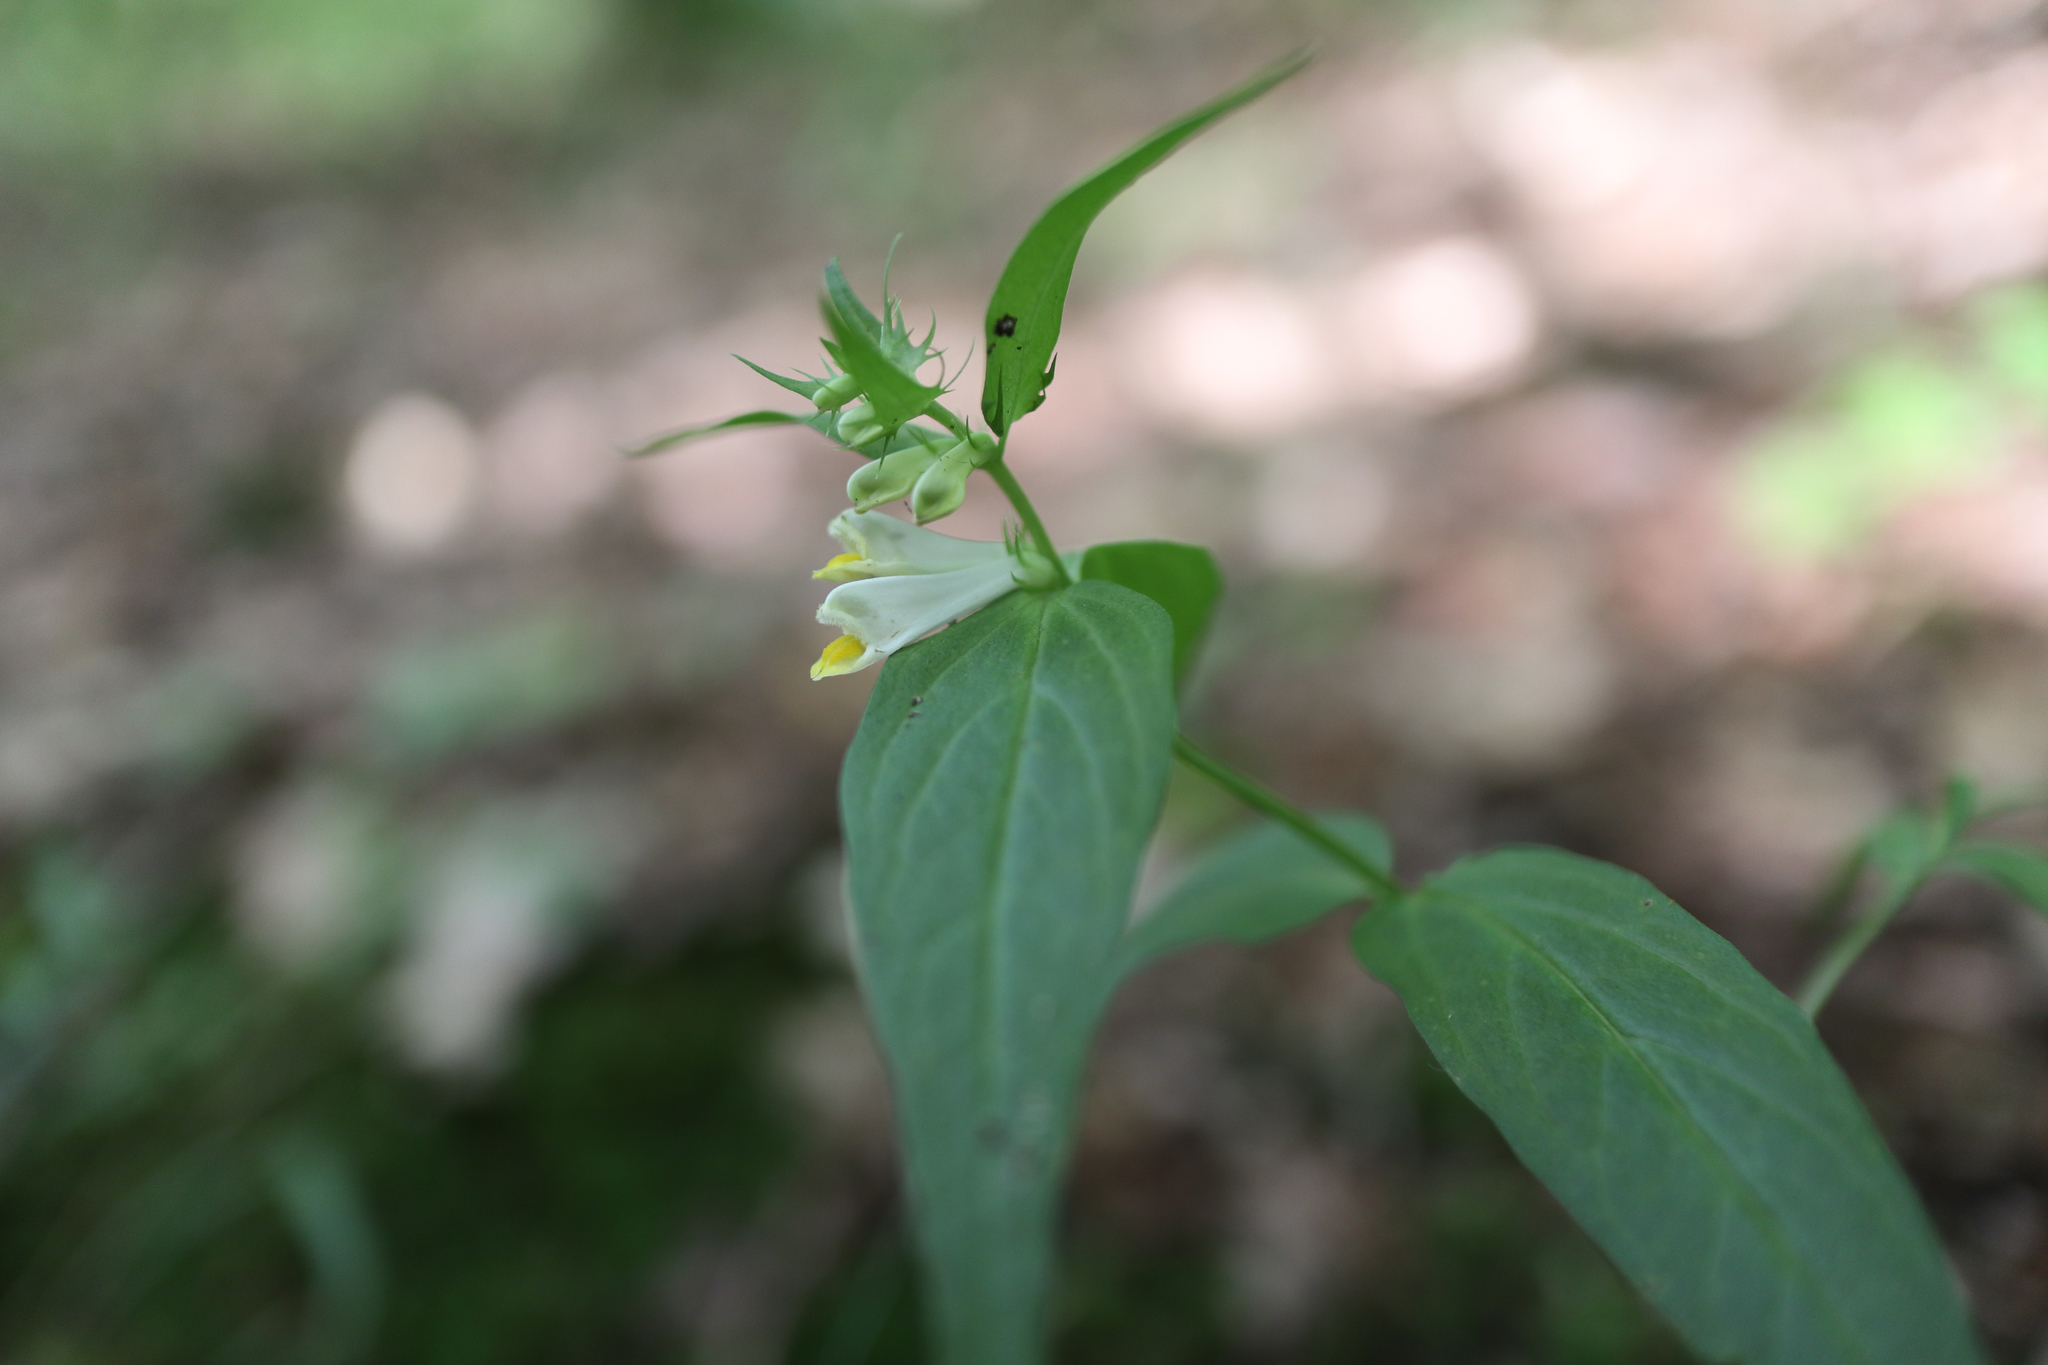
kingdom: Plantae
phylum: Tracheophyta
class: Magnoliopsida
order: Lamiales
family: Orobanchaceae
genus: Melampyrum
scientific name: Melampyrum pratense
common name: Common cow-wheat
